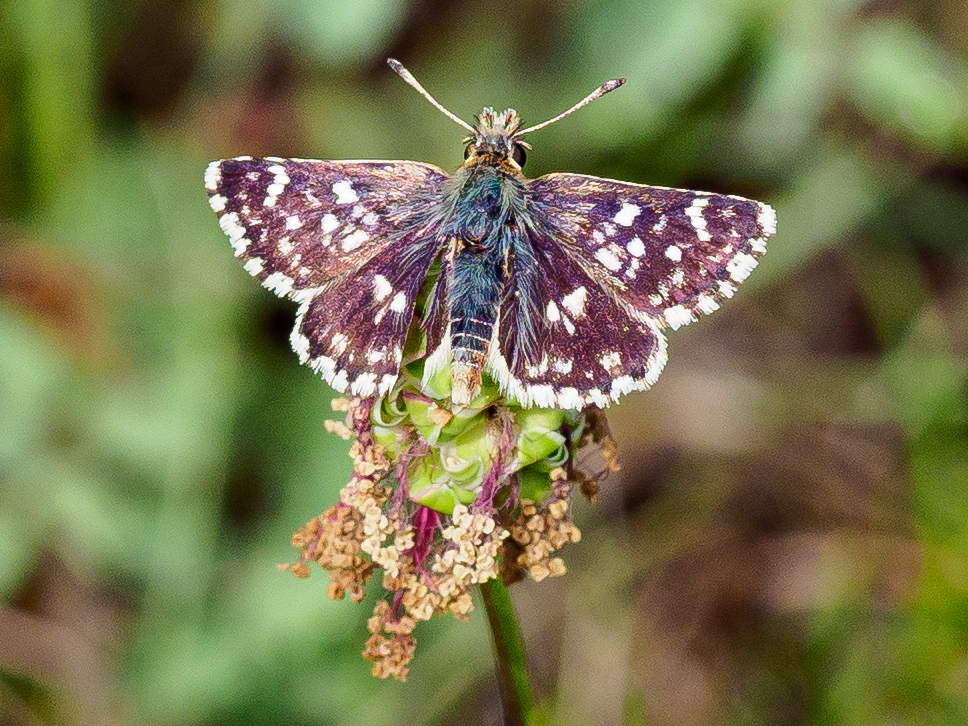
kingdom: Animalia
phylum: Arthropoda
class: Insecta
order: Lepidoptera
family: Hesperiidae
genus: Spialia
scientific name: Spialia sertorius
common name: Red underwing skipper
